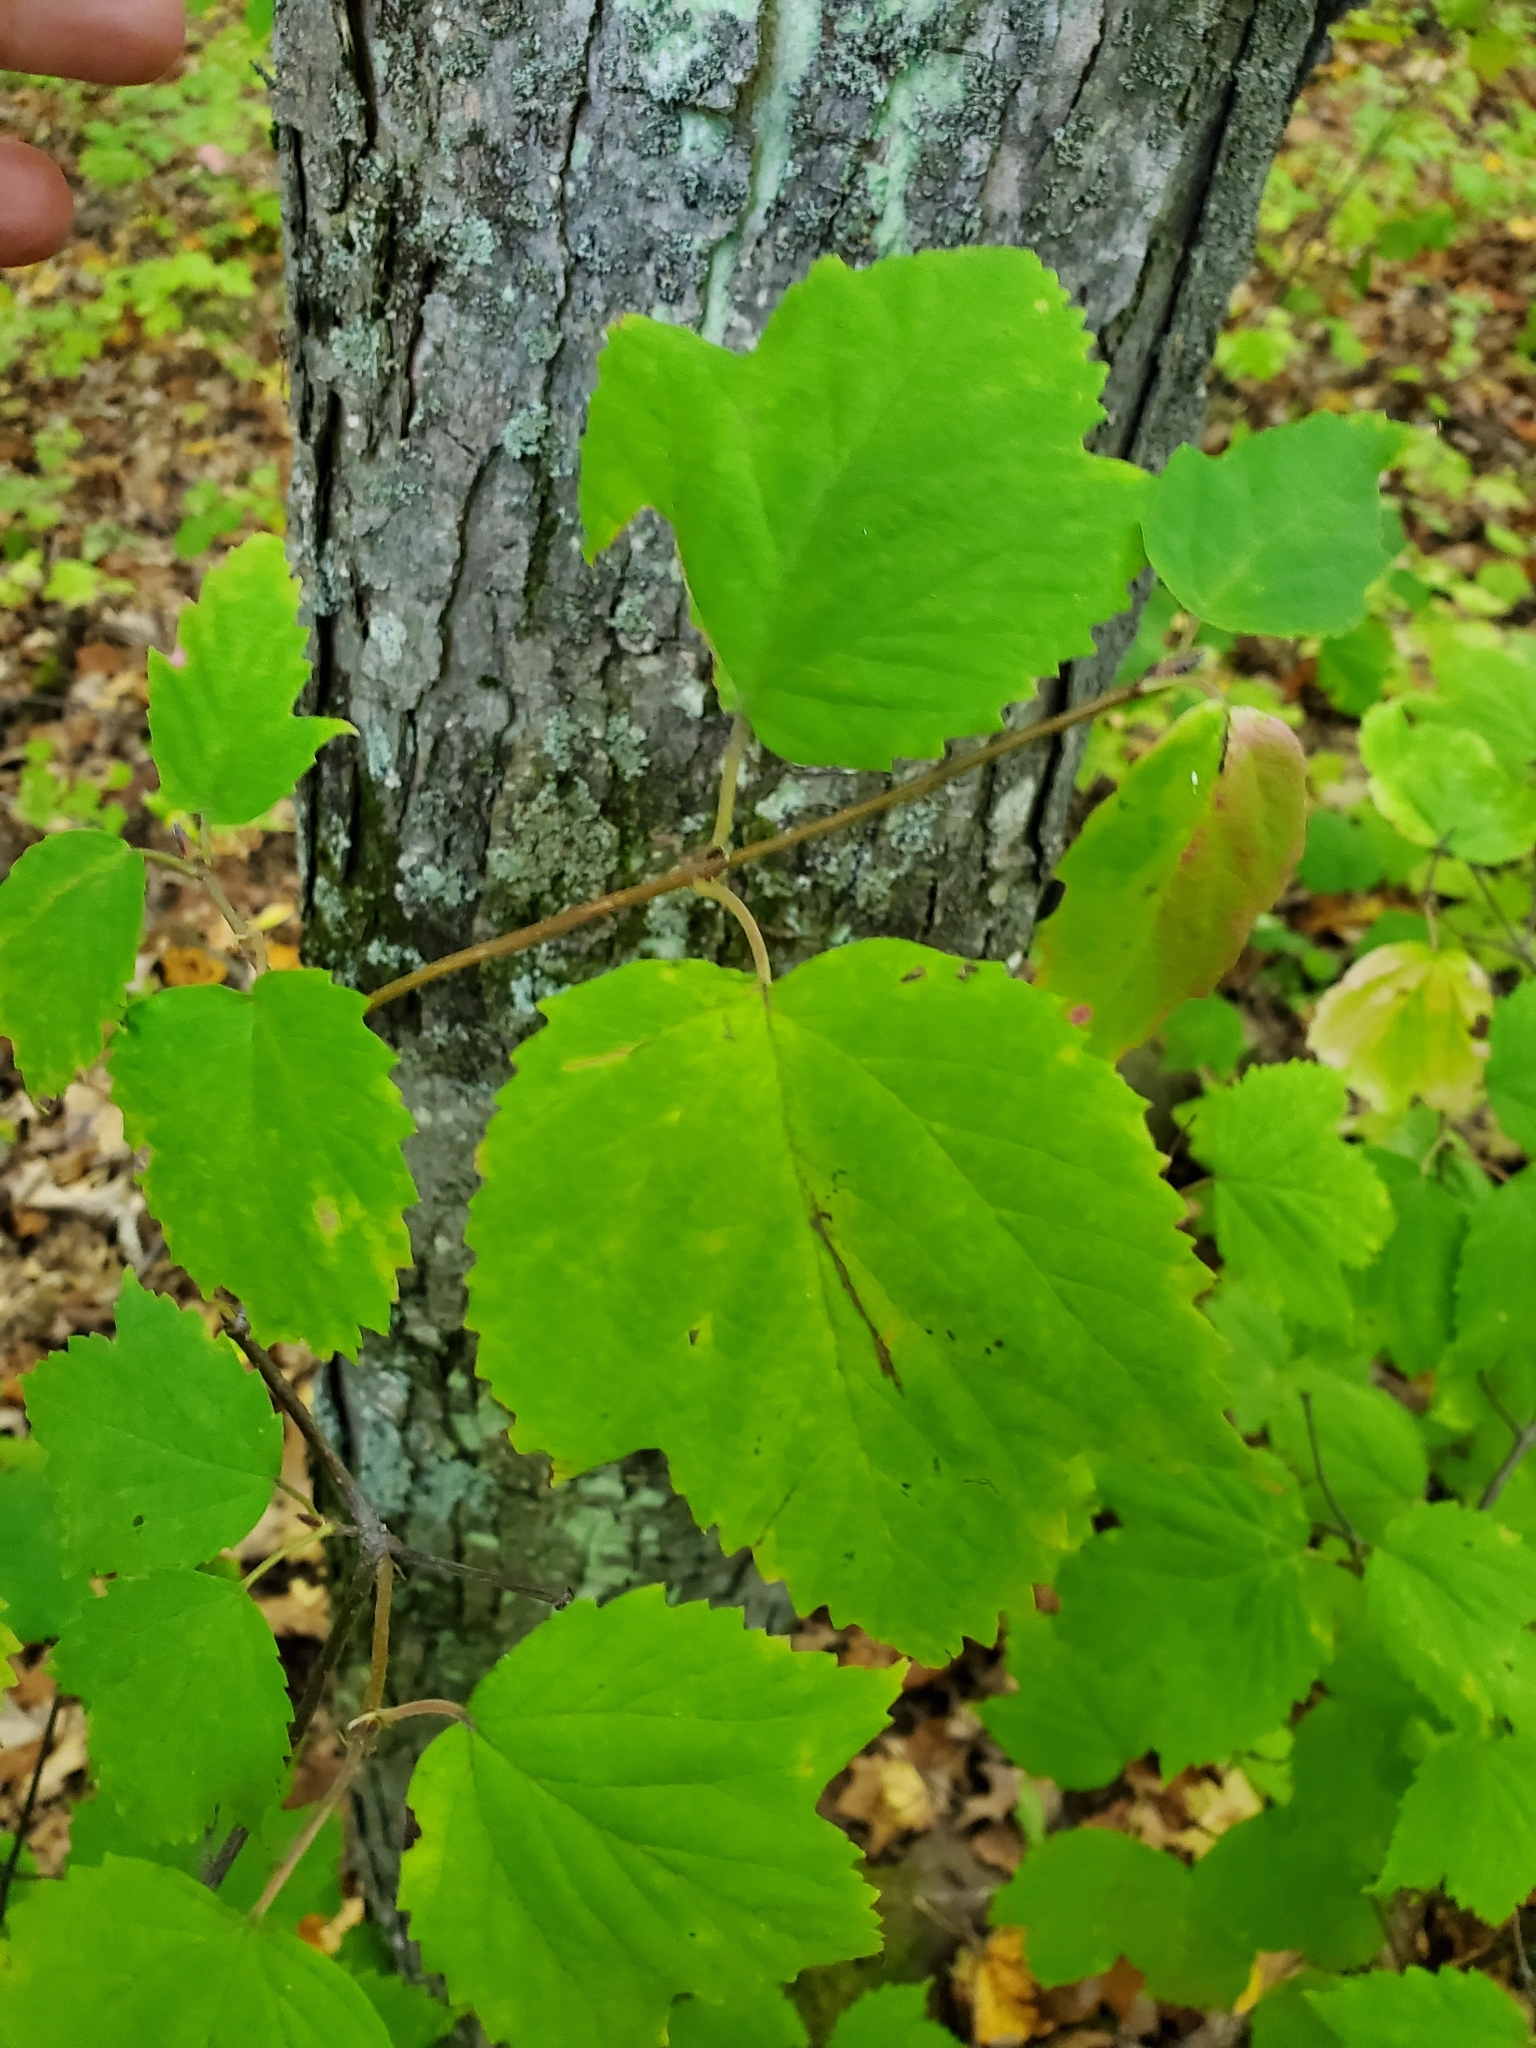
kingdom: Plantae
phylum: Tracheophyta
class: Magnoliopsida
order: Dipsacales
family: Viburnaceae
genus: Viburnum
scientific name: Viburnum acerifolium
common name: Dockmackie
